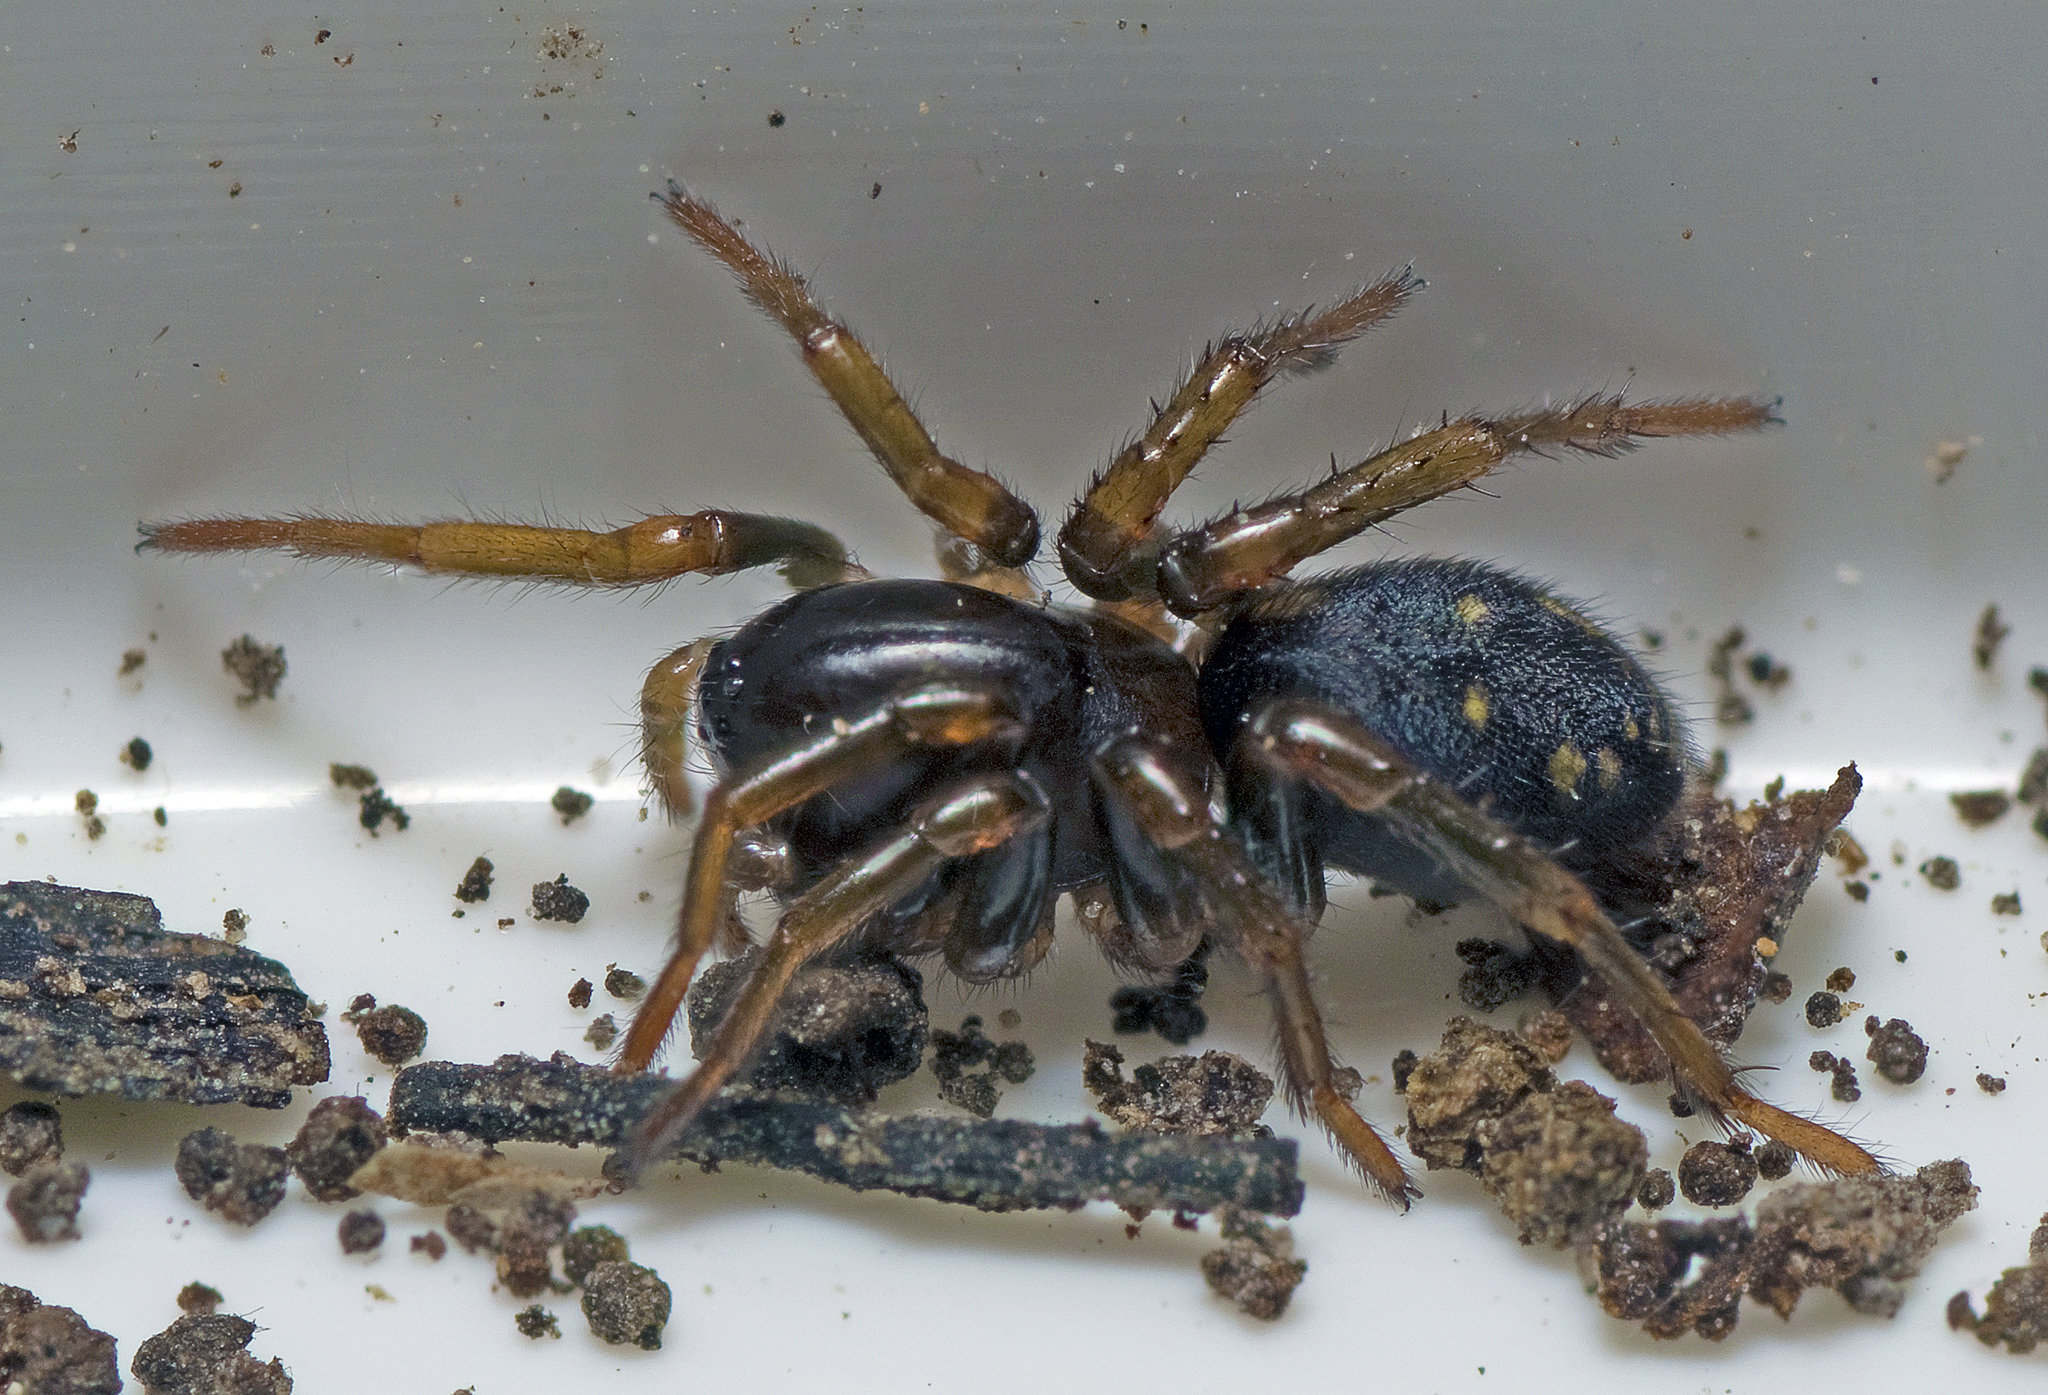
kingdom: Animalia
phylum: Arthropoda
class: Arachnida
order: Araneae
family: Zodariidae
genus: Neostorena
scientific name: Neostorena minor
